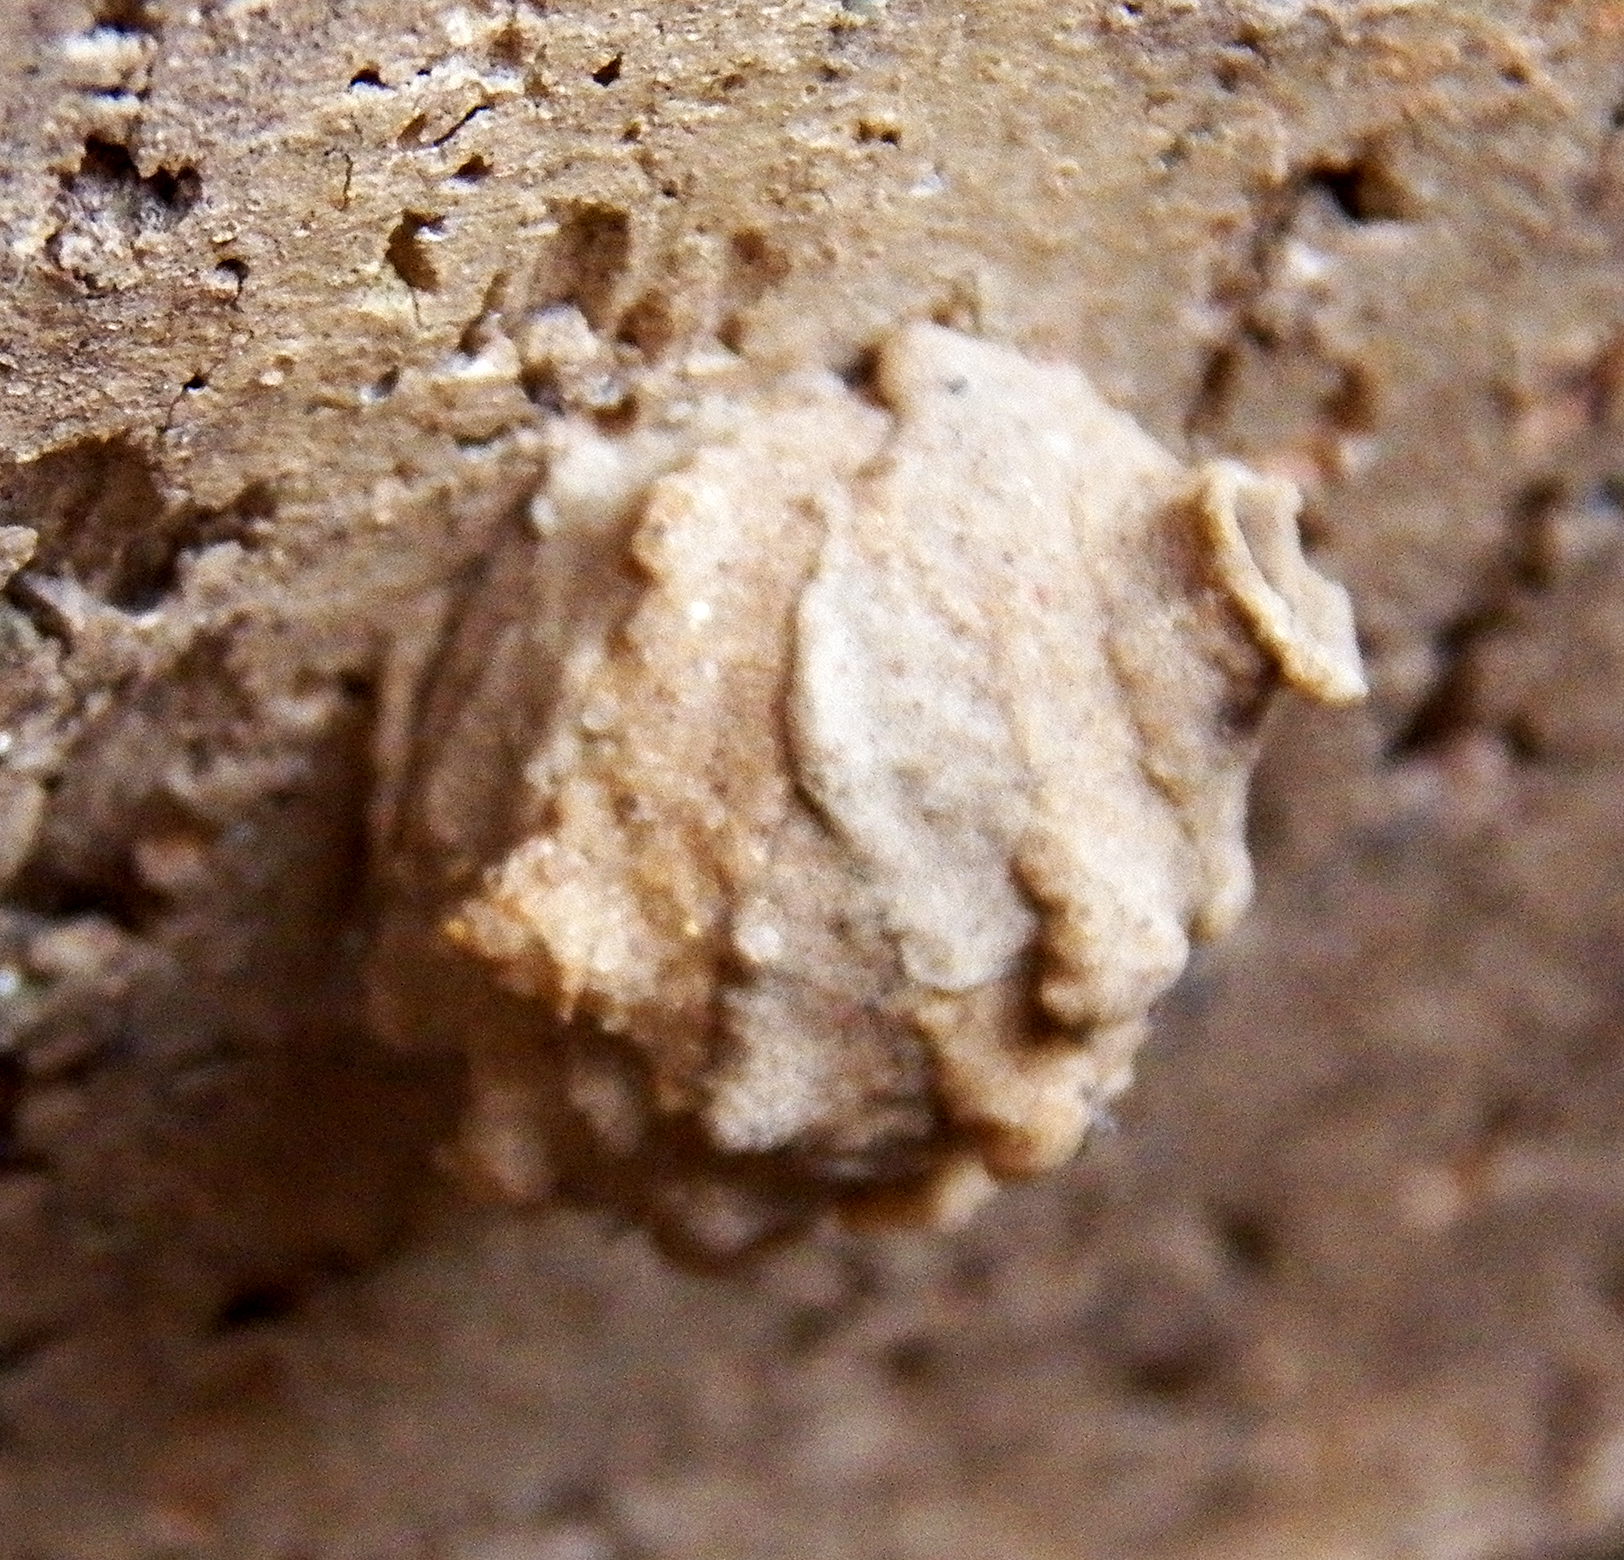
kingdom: Animalia
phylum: Arthropoda
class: Insecta
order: Hymenoptera
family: Vespidae
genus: Eumenes
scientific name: Eumenes
